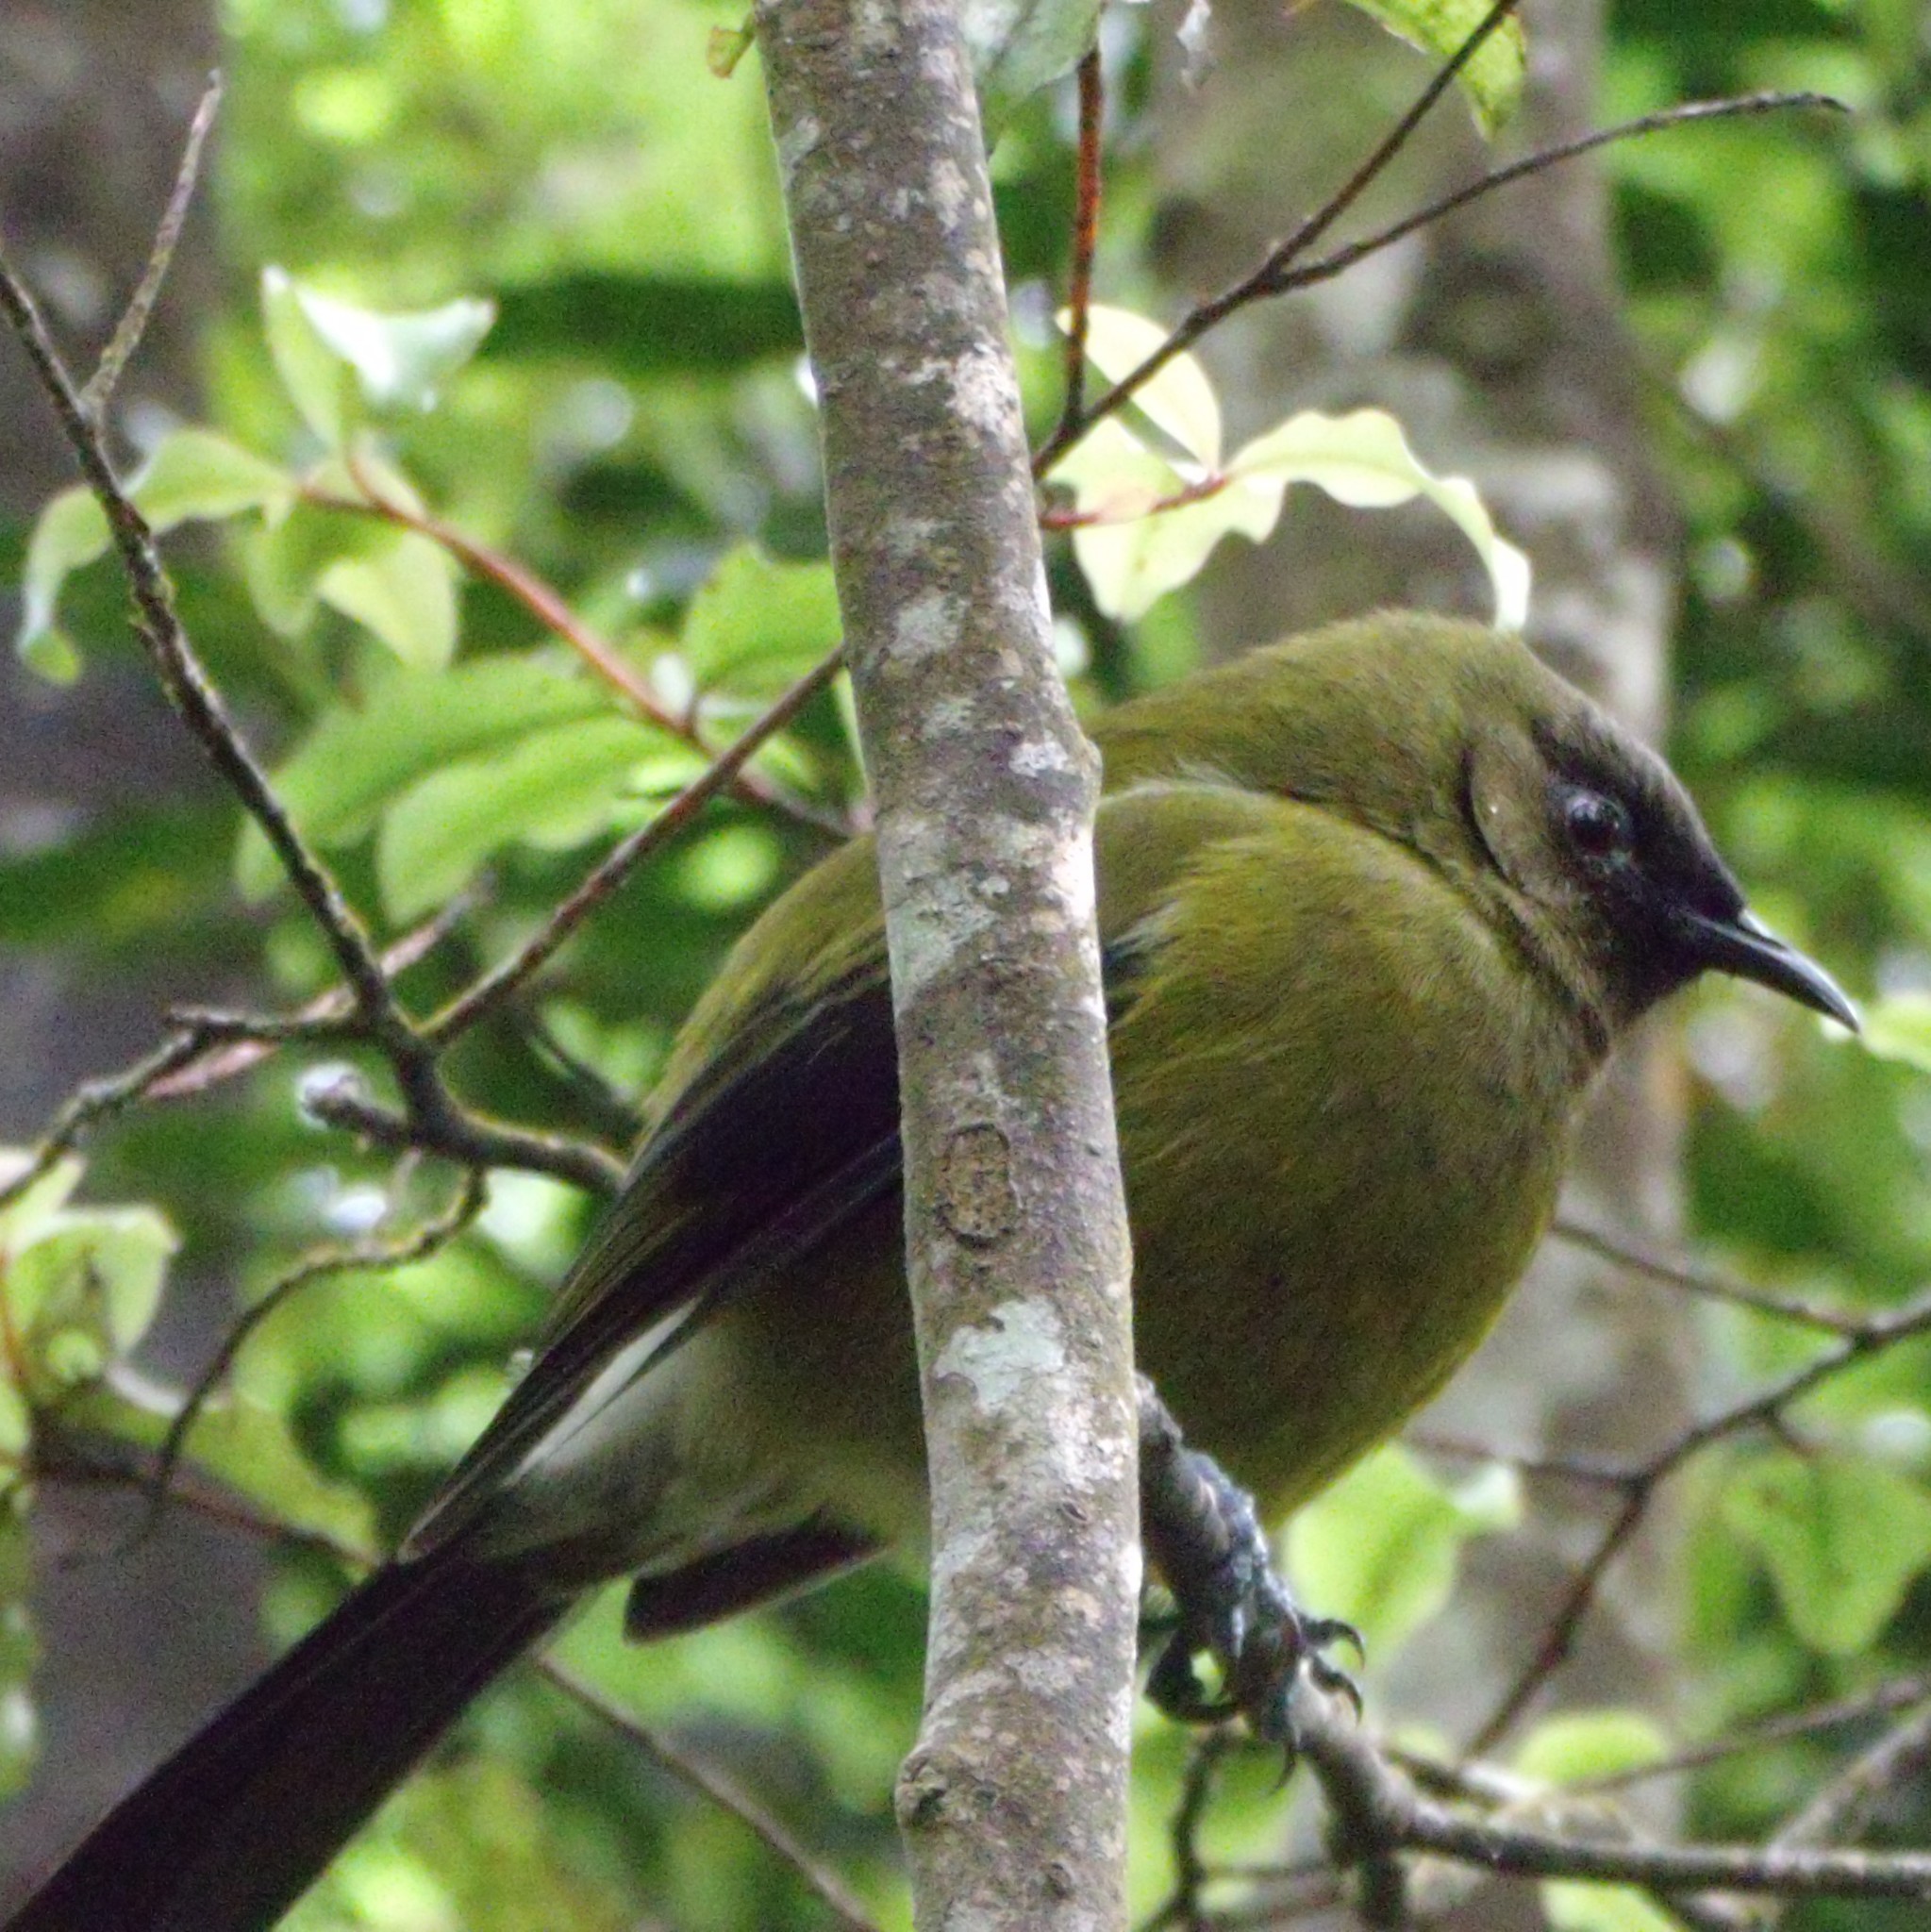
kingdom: Animalia
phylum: Chordata
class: Aves
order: Passeriformes
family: Meliphagidae
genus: Anthornis
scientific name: Anthornis melanura
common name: New zealand bellbird
